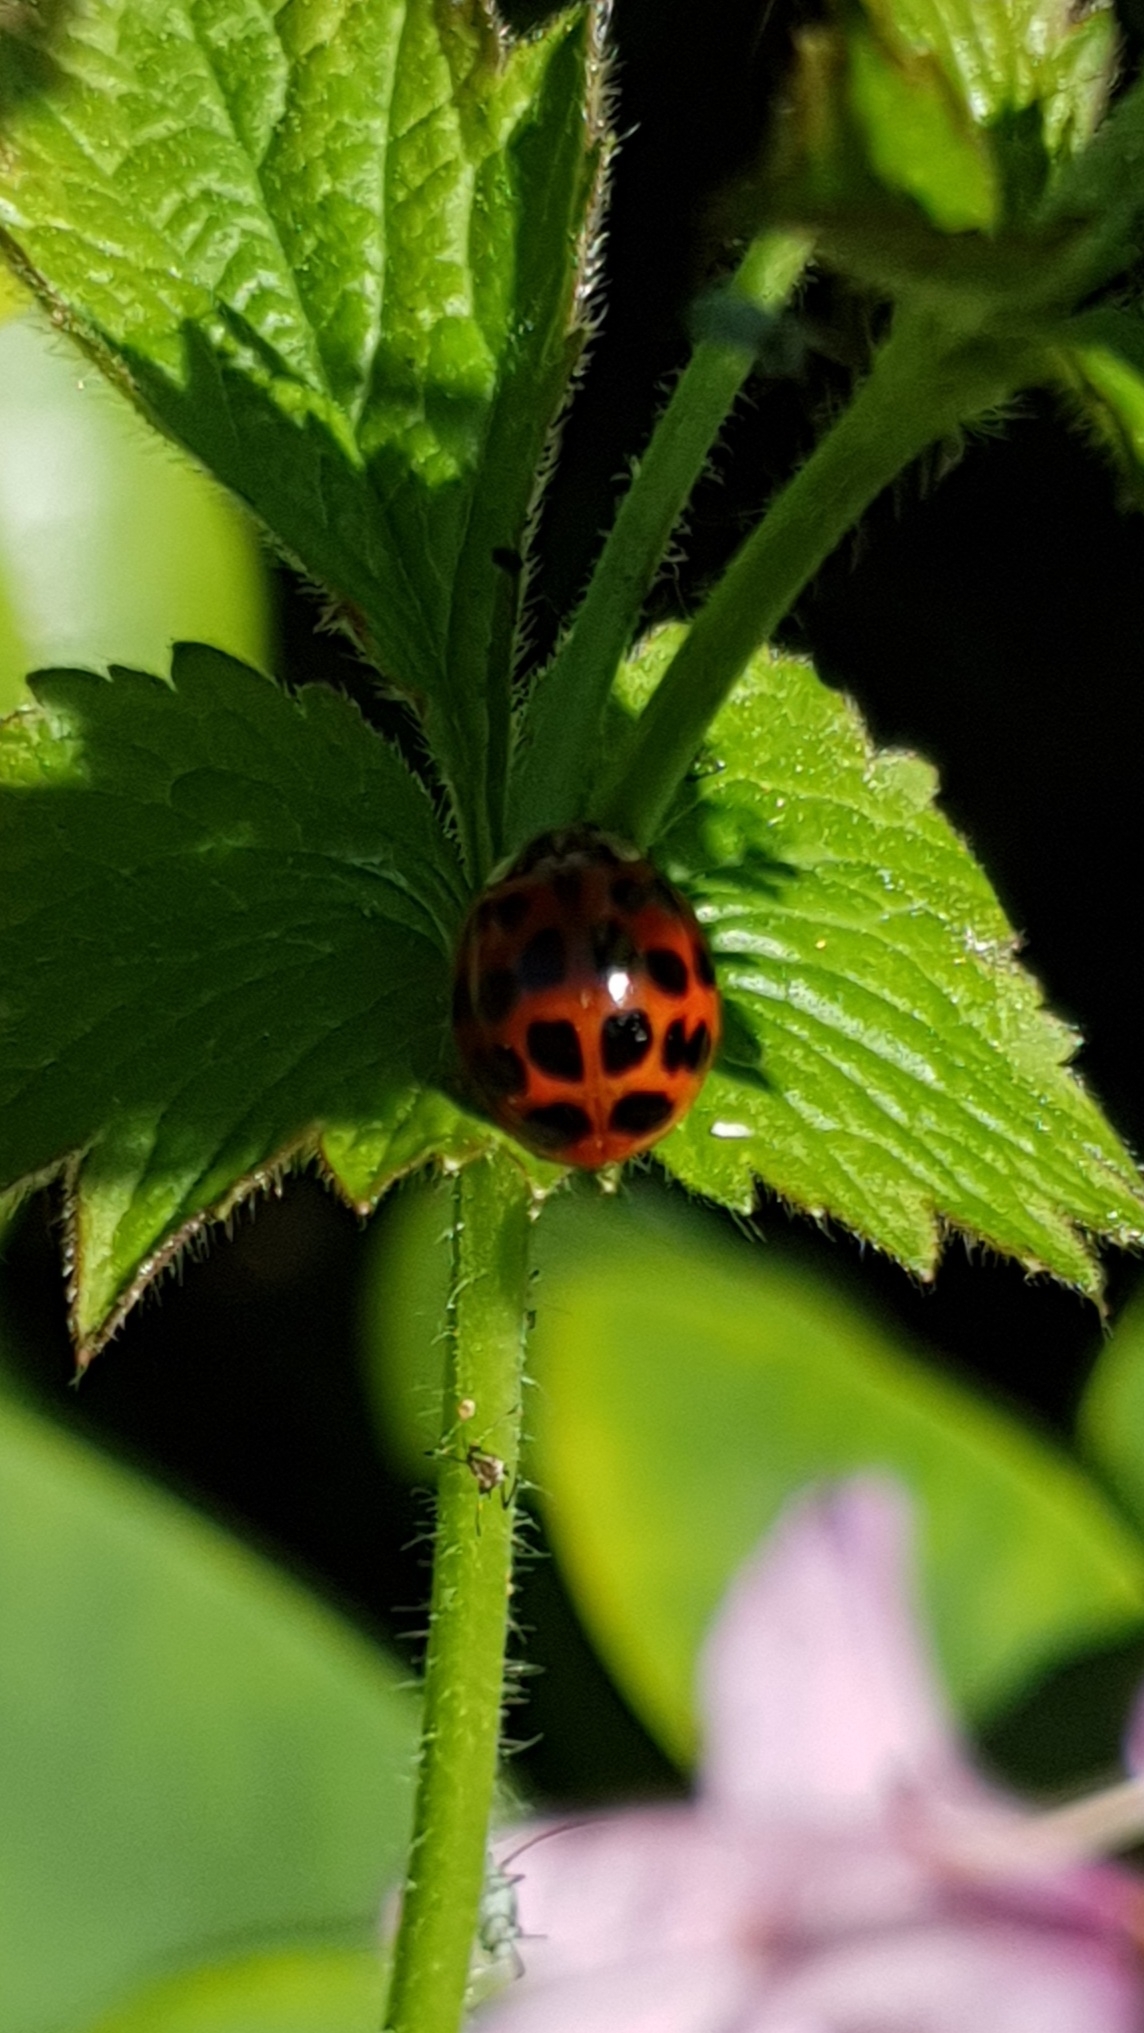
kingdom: Animalia
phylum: Arthropoda
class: Insecta
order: Coleoptera
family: Coccinellidae
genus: Harmonia
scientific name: Harmonia axyridis
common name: Harlequin ladybird
